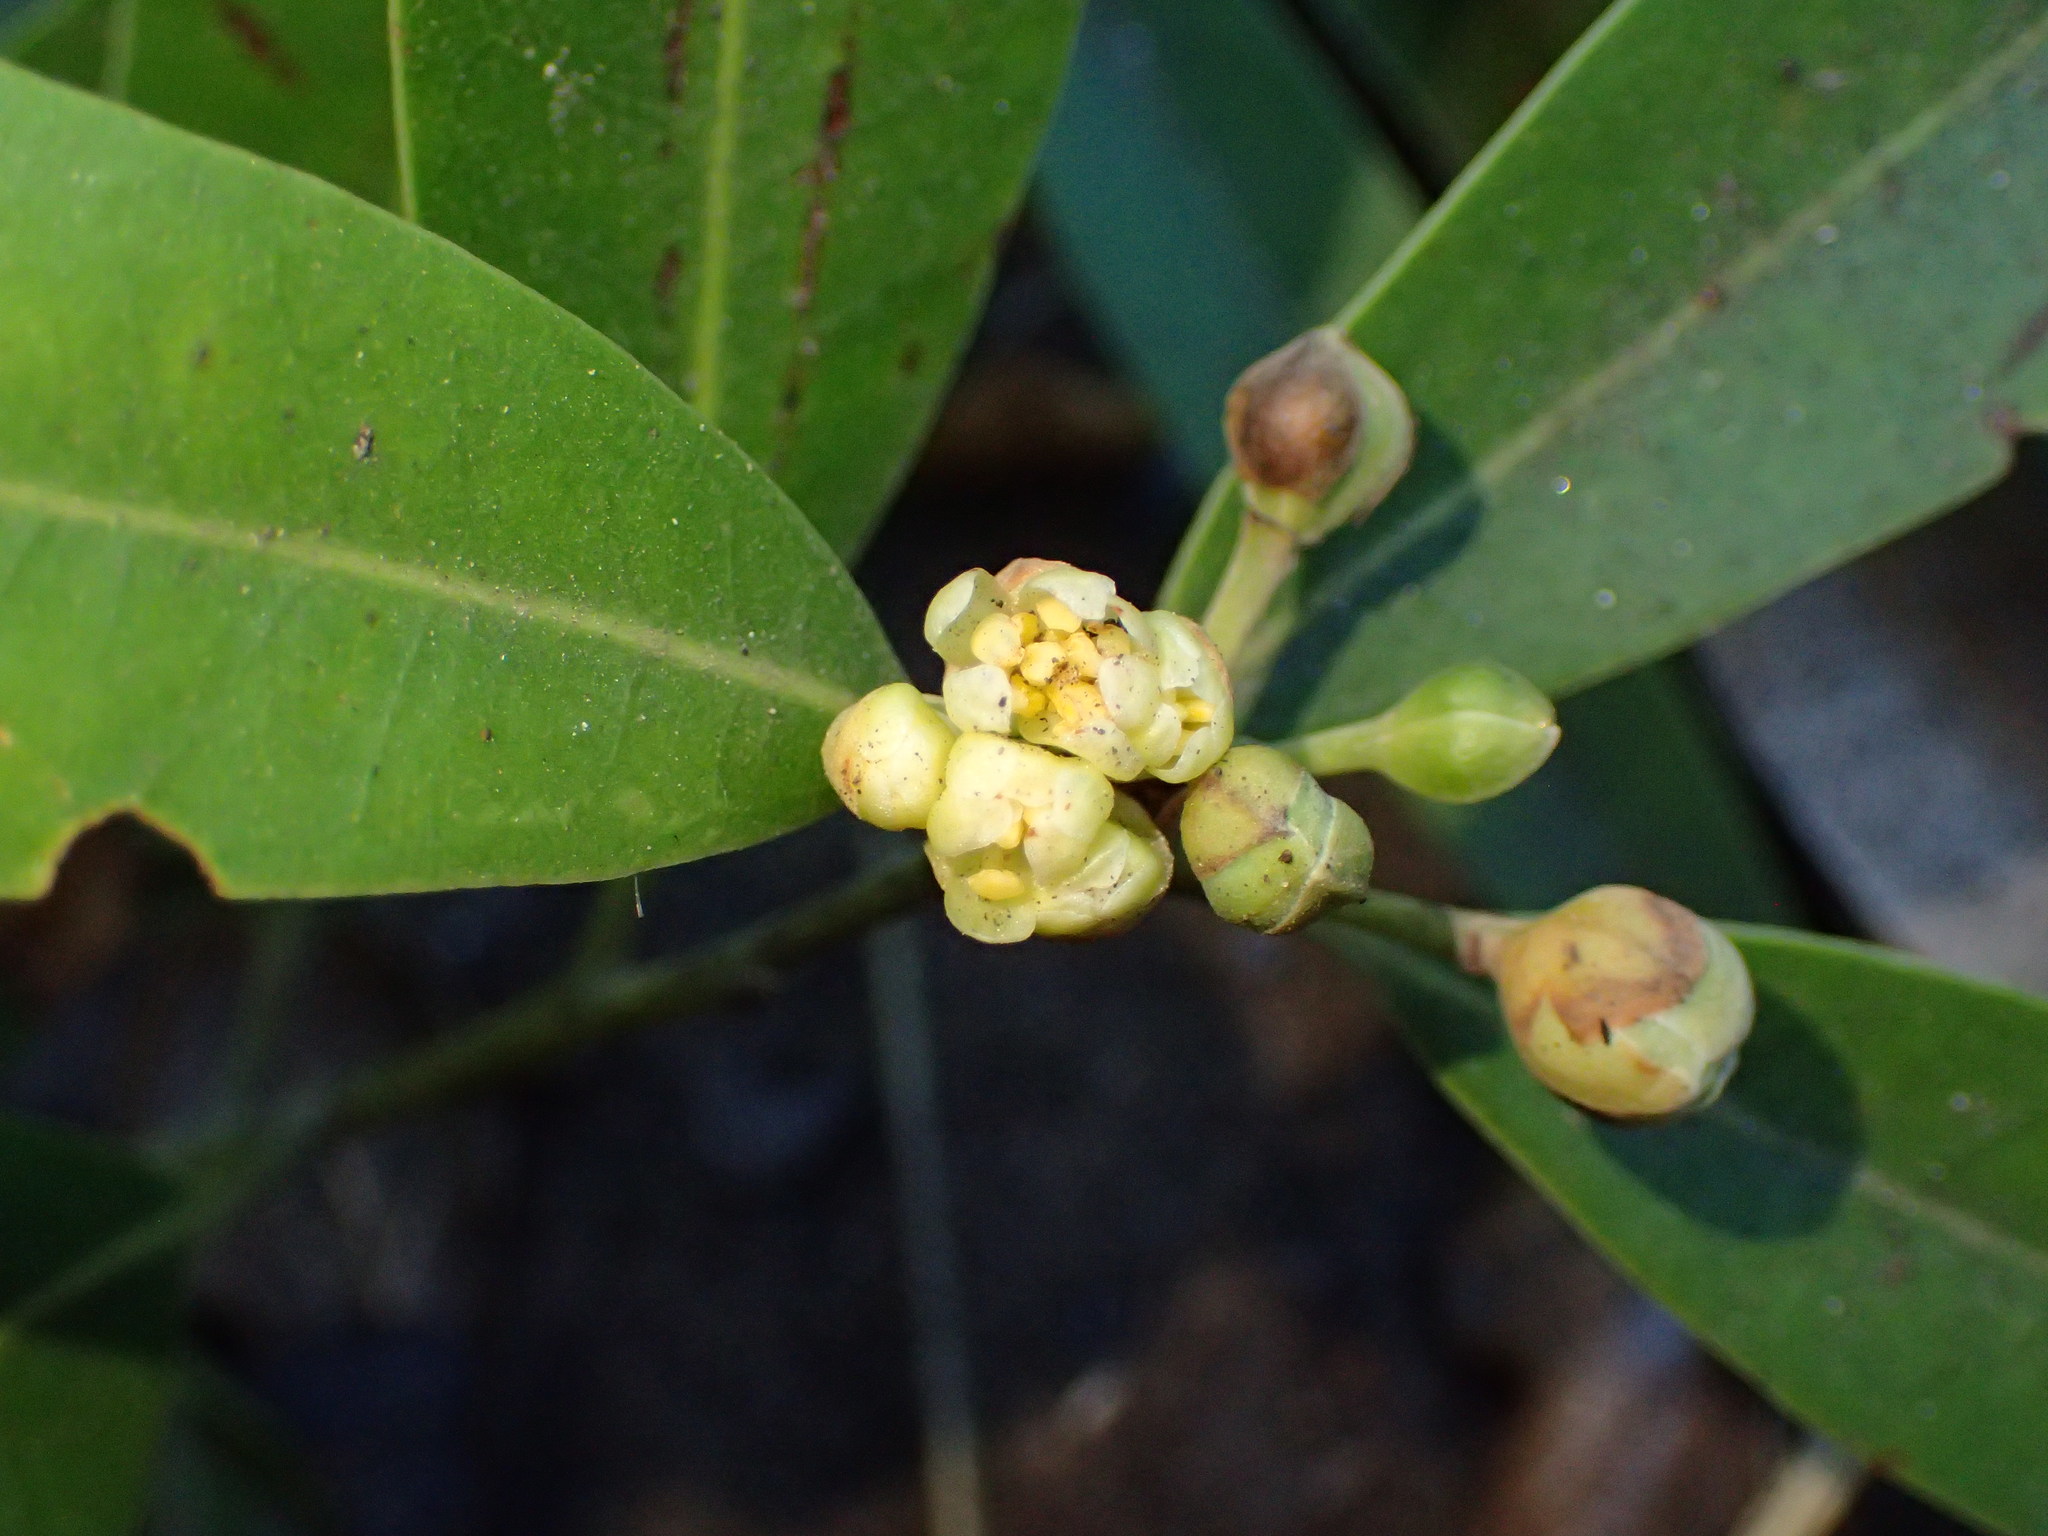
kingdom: Plantae
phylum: Tracheophyta
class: Magnoliopsida
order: Laurales
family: Lauraceae
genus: Umbellularia
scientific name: Umbellularia californica
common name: California bay
